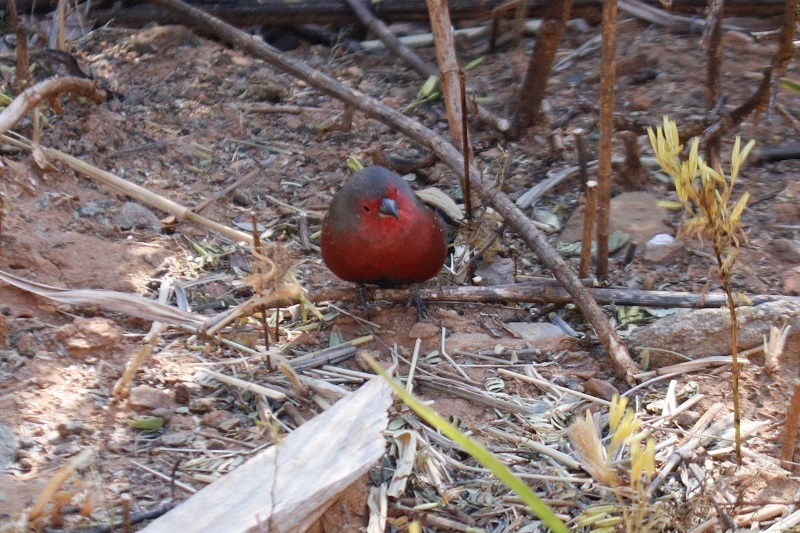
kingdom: Animalia
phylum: Chordata
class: Aves
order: Passeriformes
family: Estrildidae
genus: Lagonosticta
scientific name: Lagonosticta rubricata
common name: African firefinch
